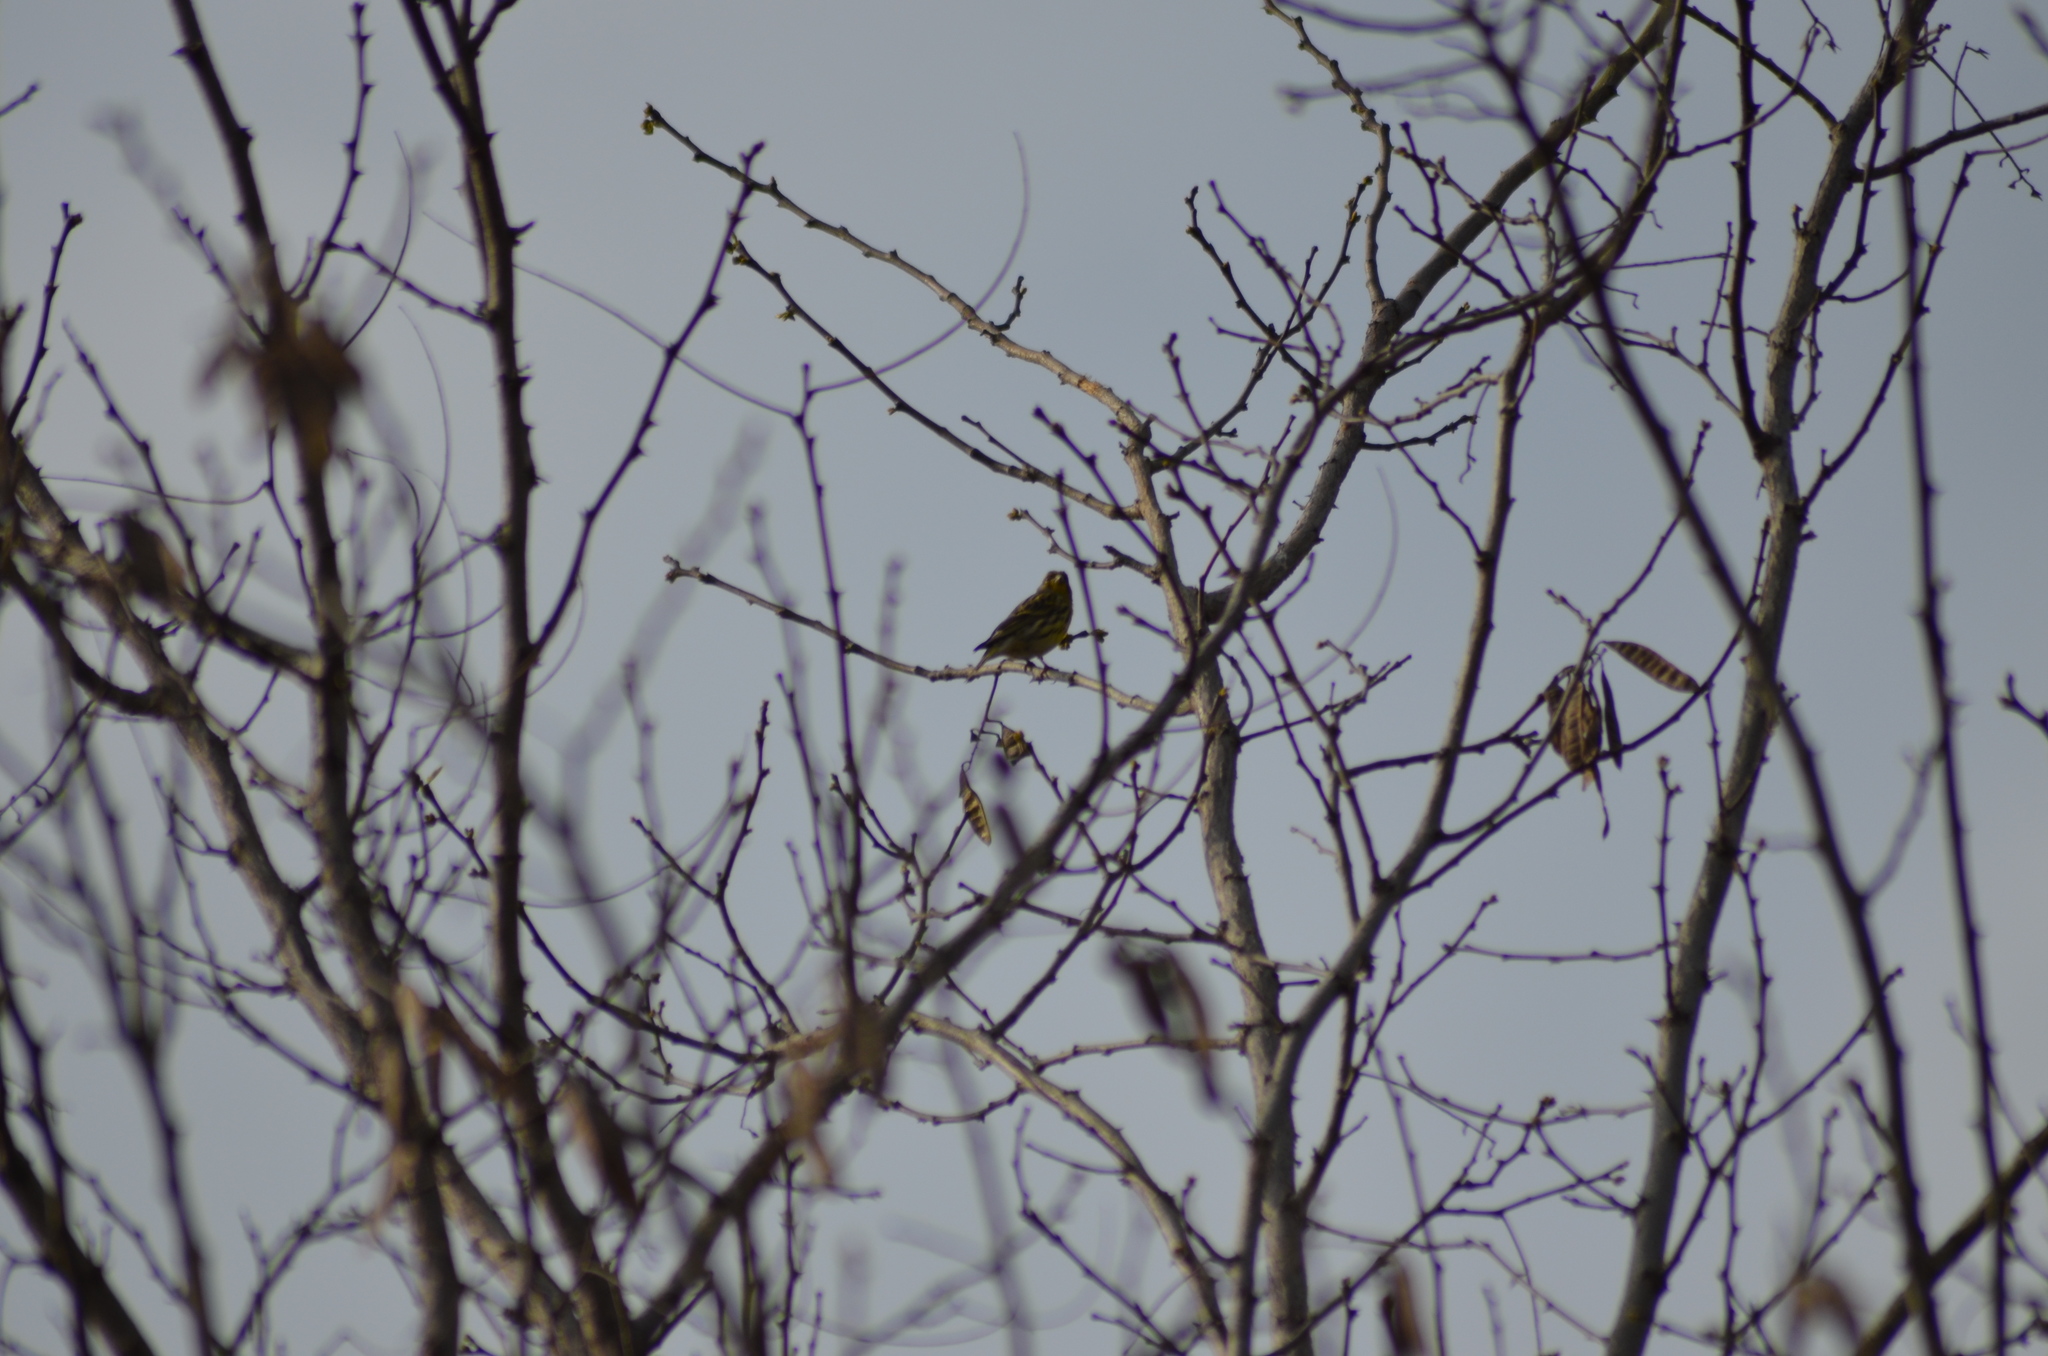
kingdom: Animalia
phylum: Chordata
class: Aves
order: Passeriformes
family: Fringillidae
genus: Serinus
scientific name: Serinus serinus
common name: European serin
